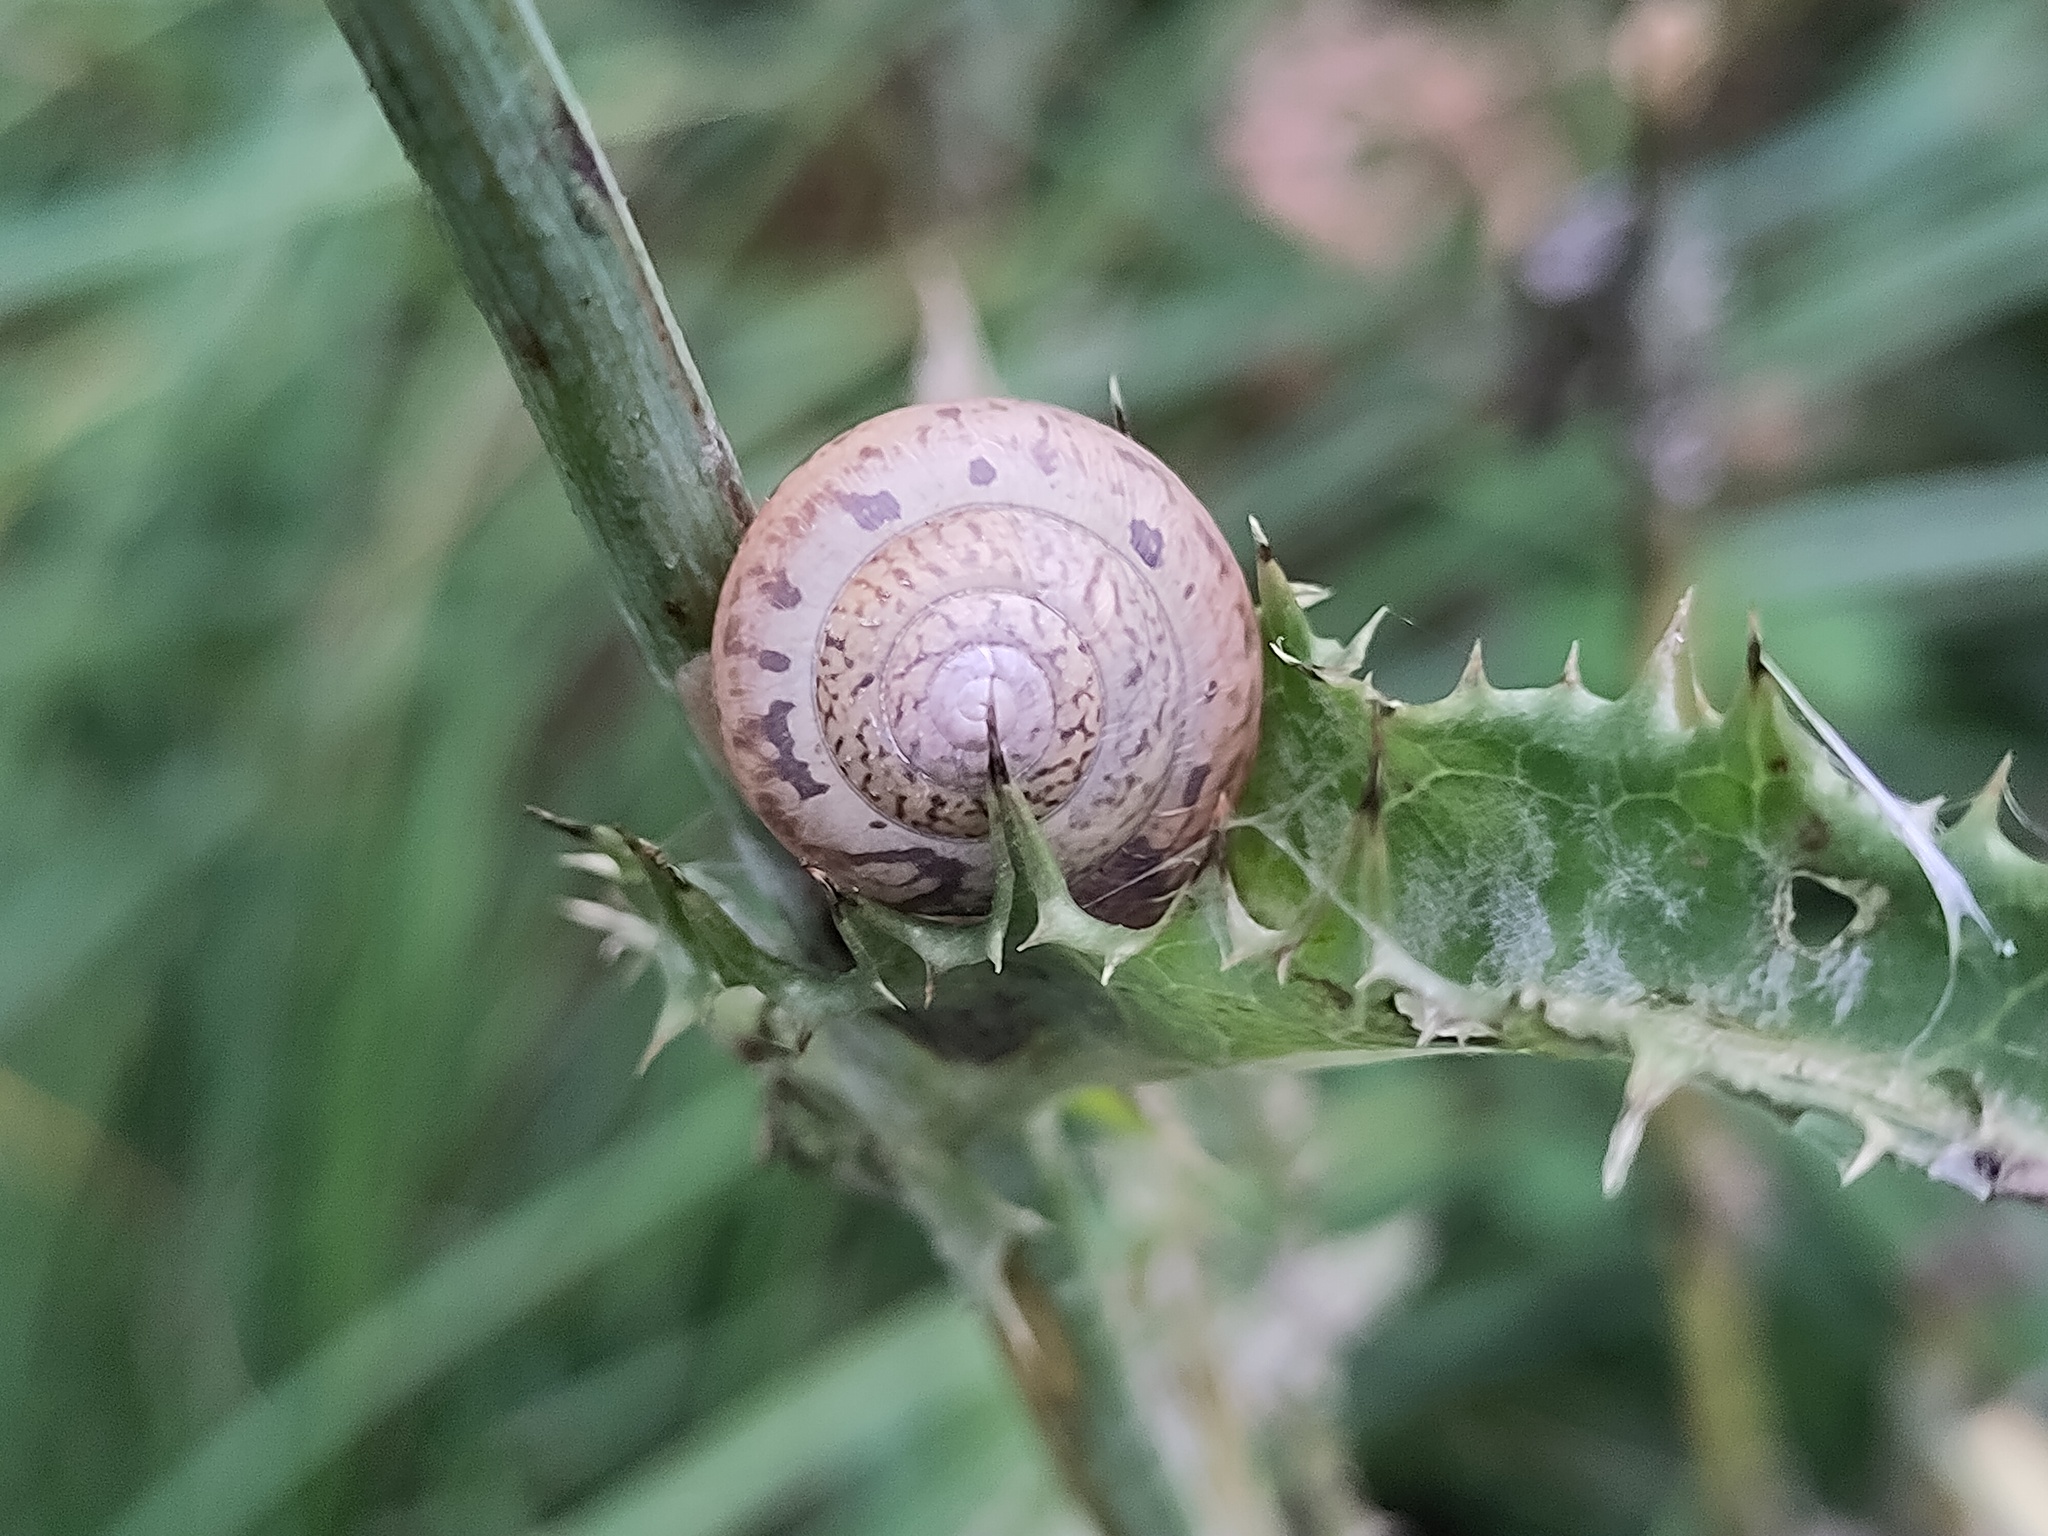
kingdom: Animalia
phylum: Mollusca
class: Gastropoda
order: Stylommatophora
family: Camaenidae
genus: Fruticicola
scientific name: Fruticicola fruticum
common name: Bush snail
